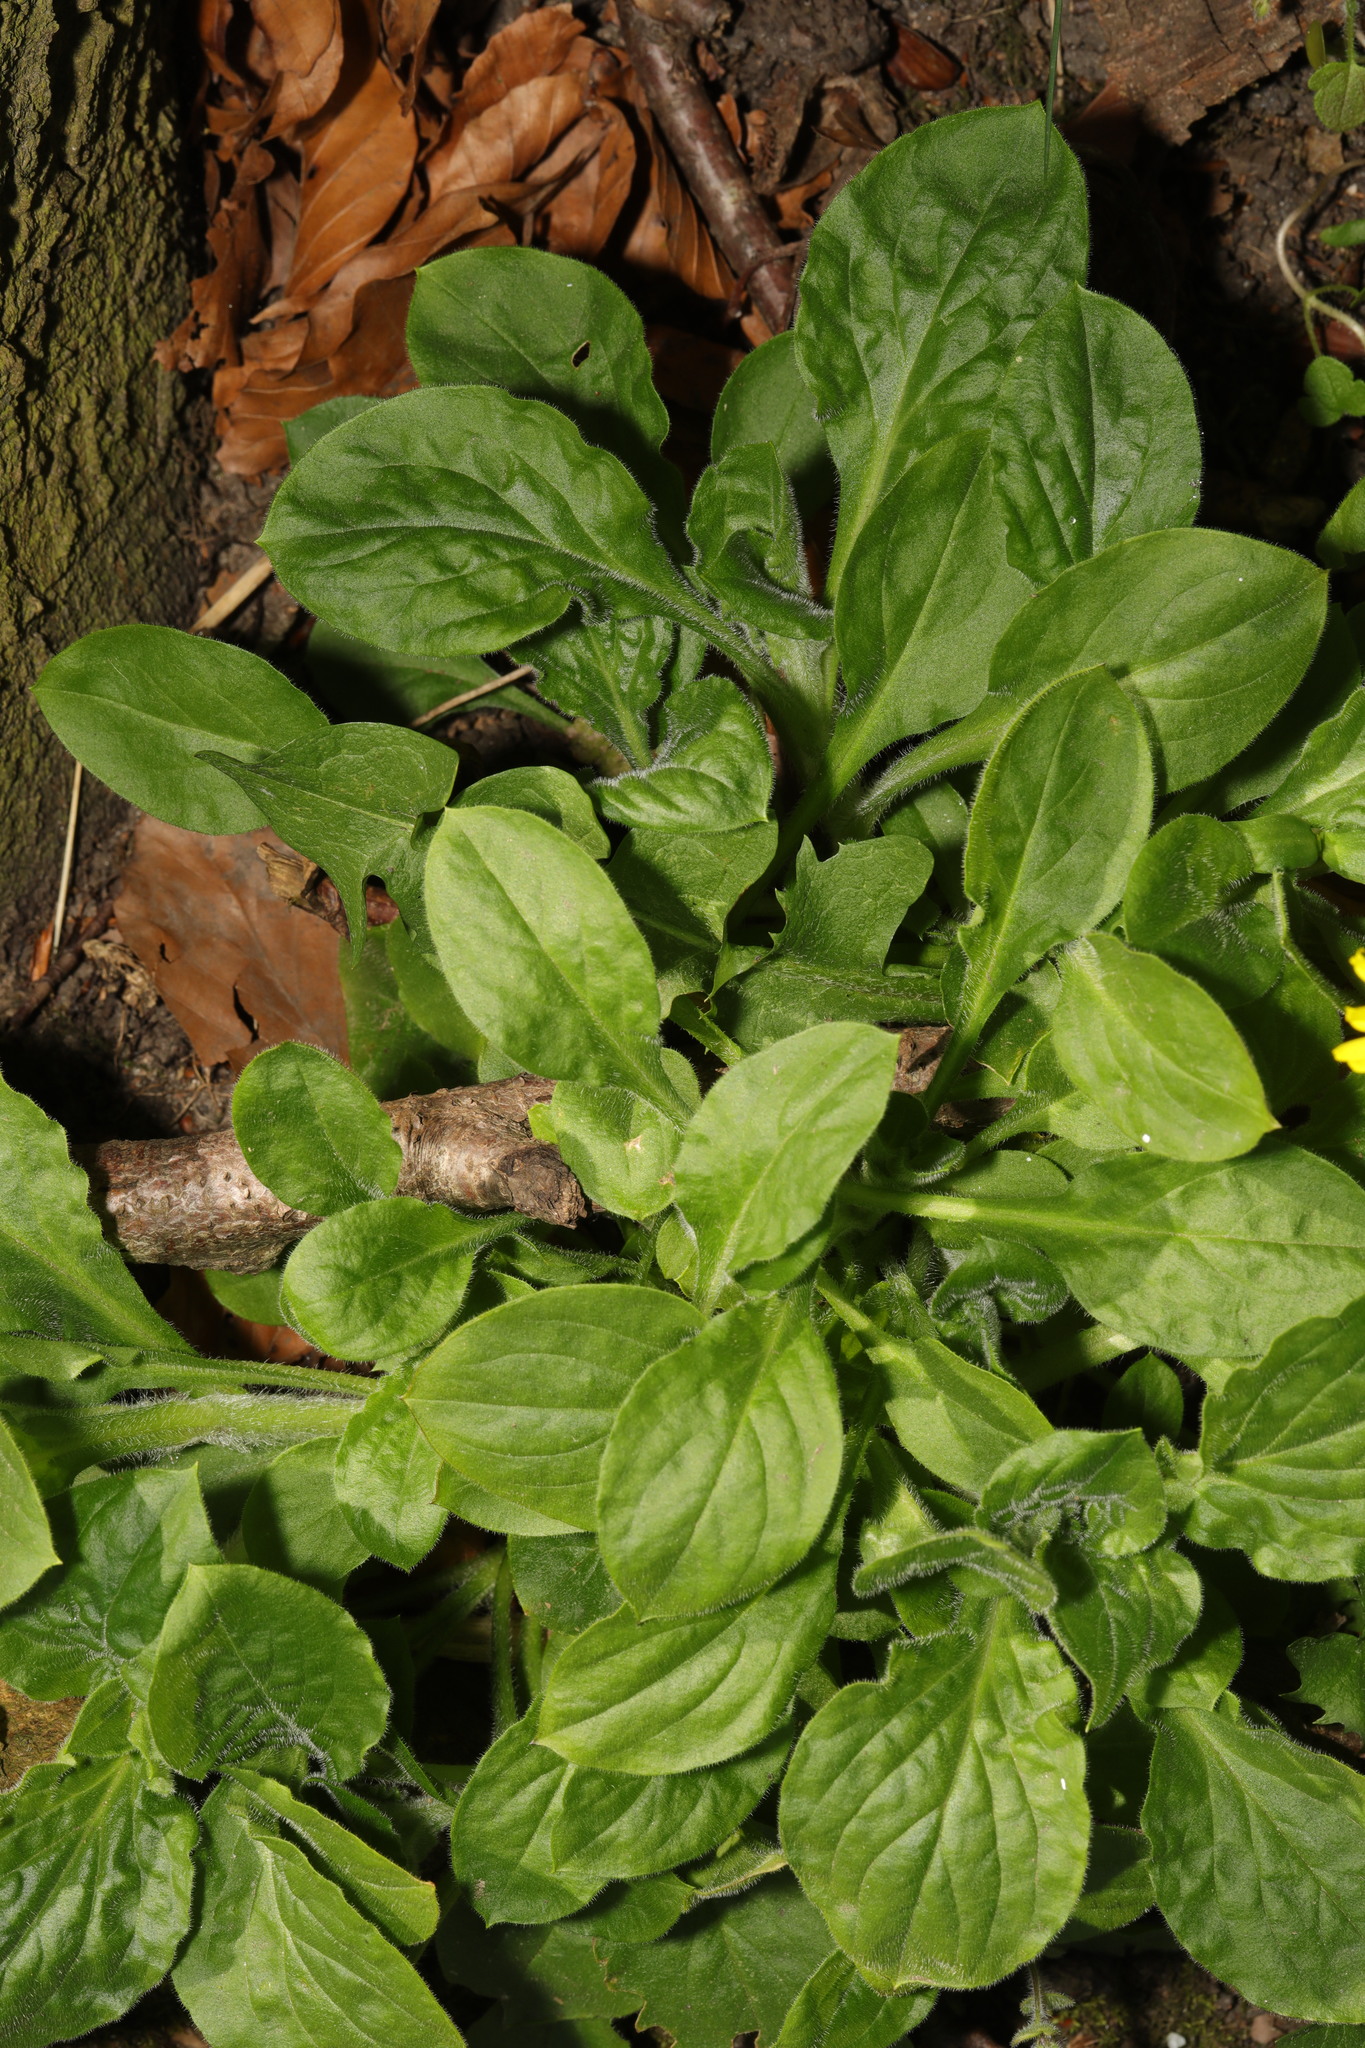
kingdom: Plantae
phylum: Tracheophyta
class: Magnoliopsida
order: Caryophyllales
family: Caryophyllaceae
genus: Silene
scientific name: Silene dioica
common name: Red campion
